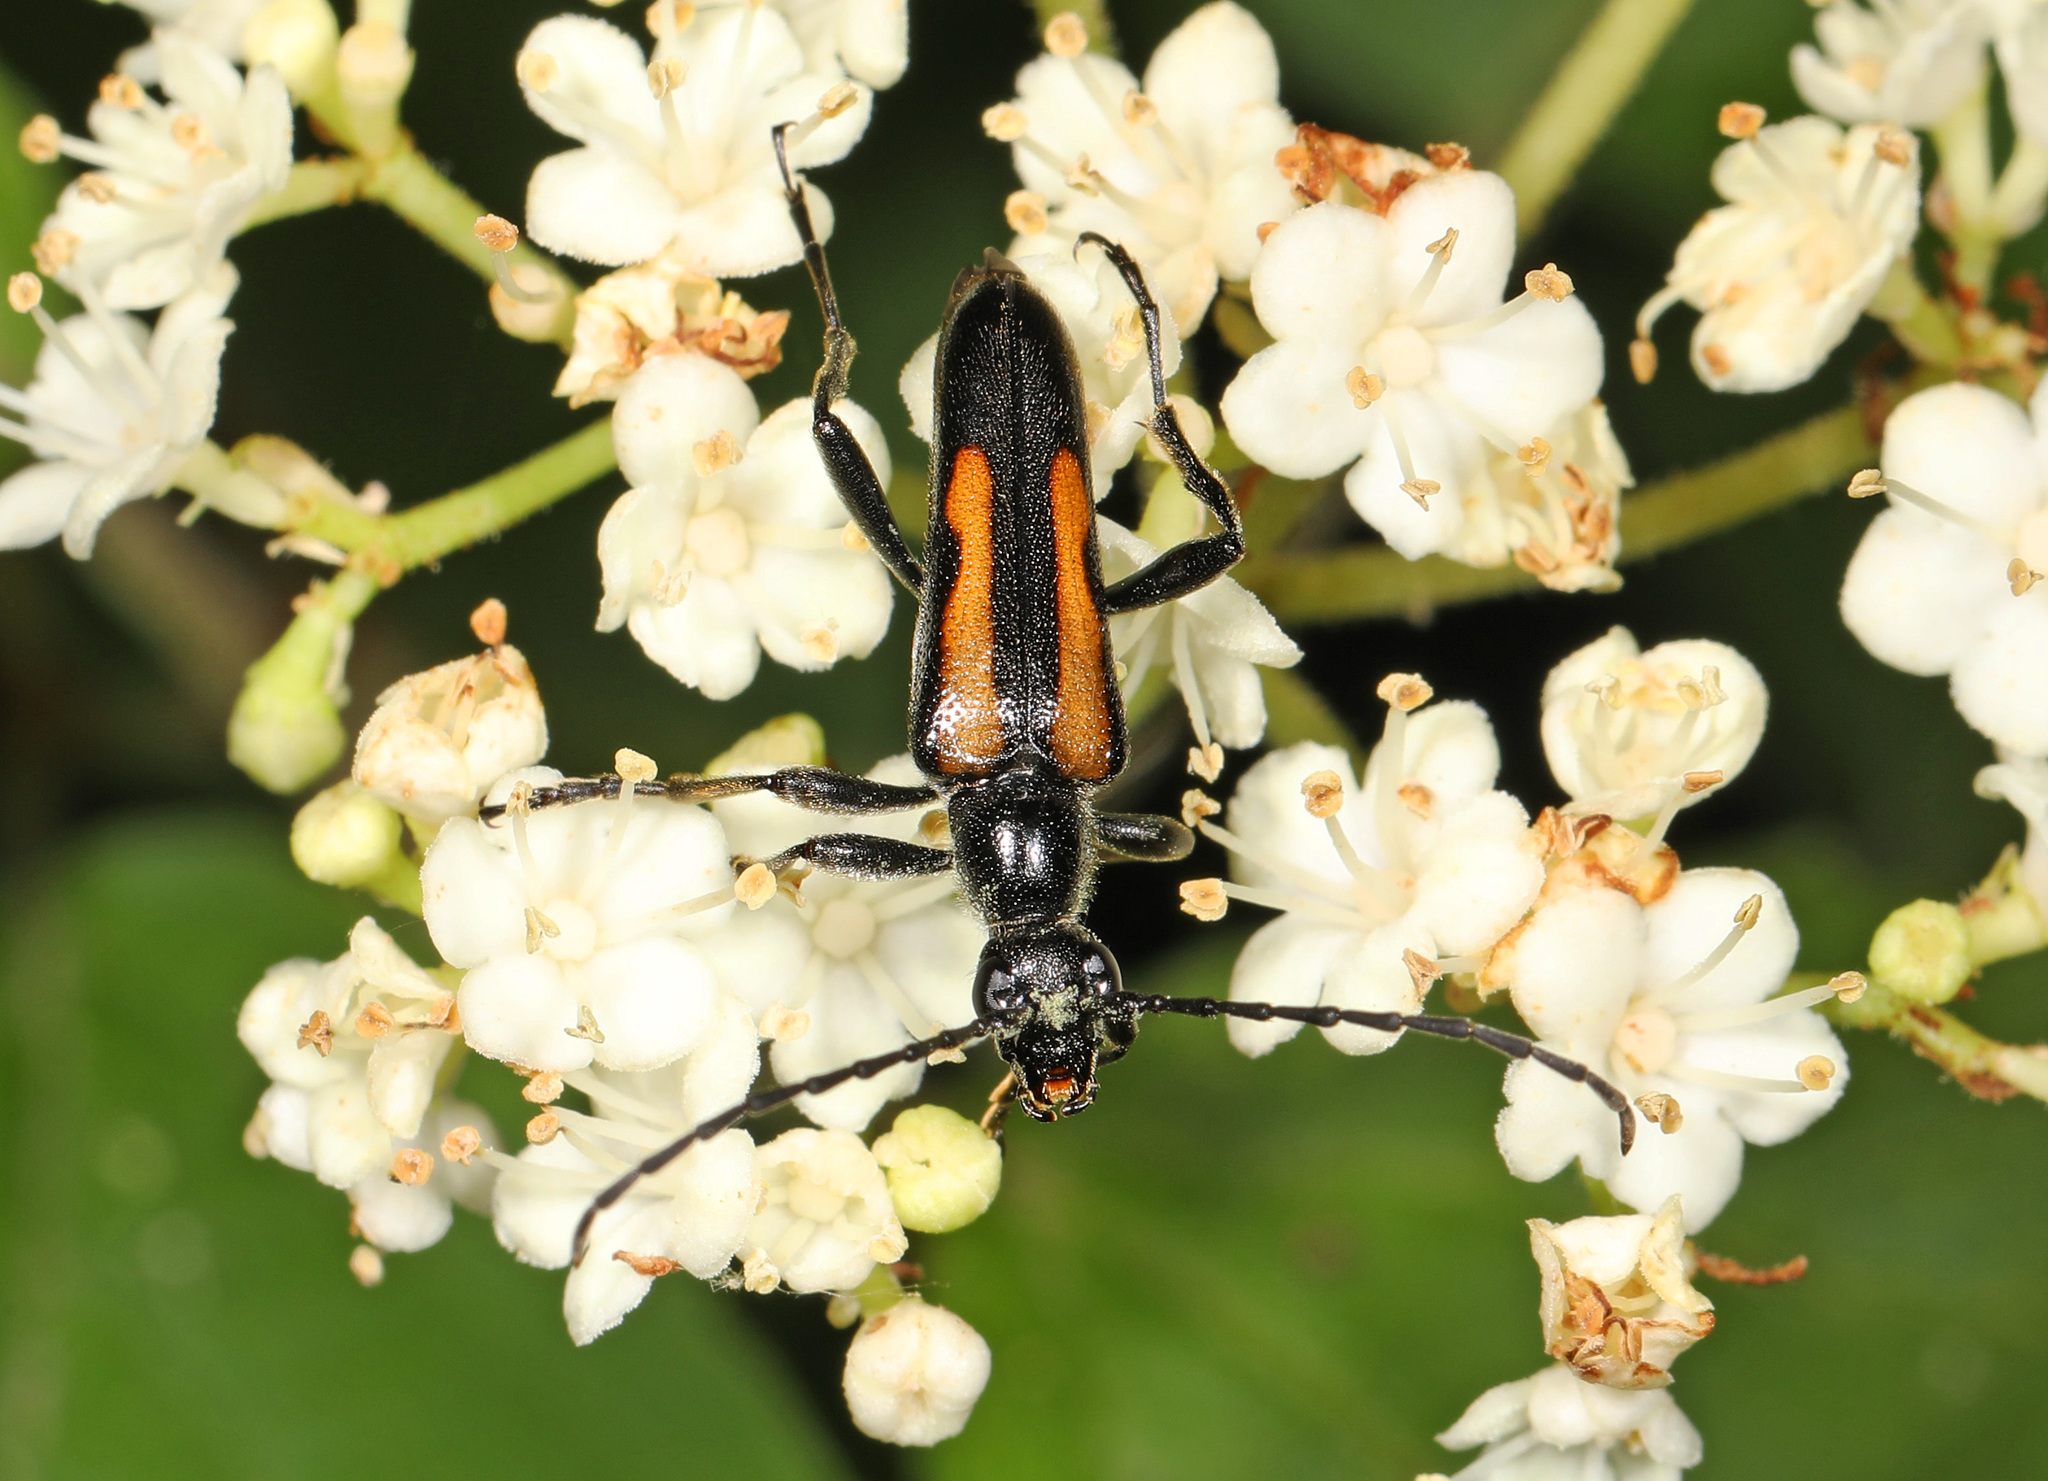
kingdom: Animalia
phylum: Arthropoda
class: Insecta
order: Coleoptera
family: Cerambycidae
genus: Strangalepta
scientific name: Strangalepta abbreviata
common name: Strangalepta flower longhorn beetle
